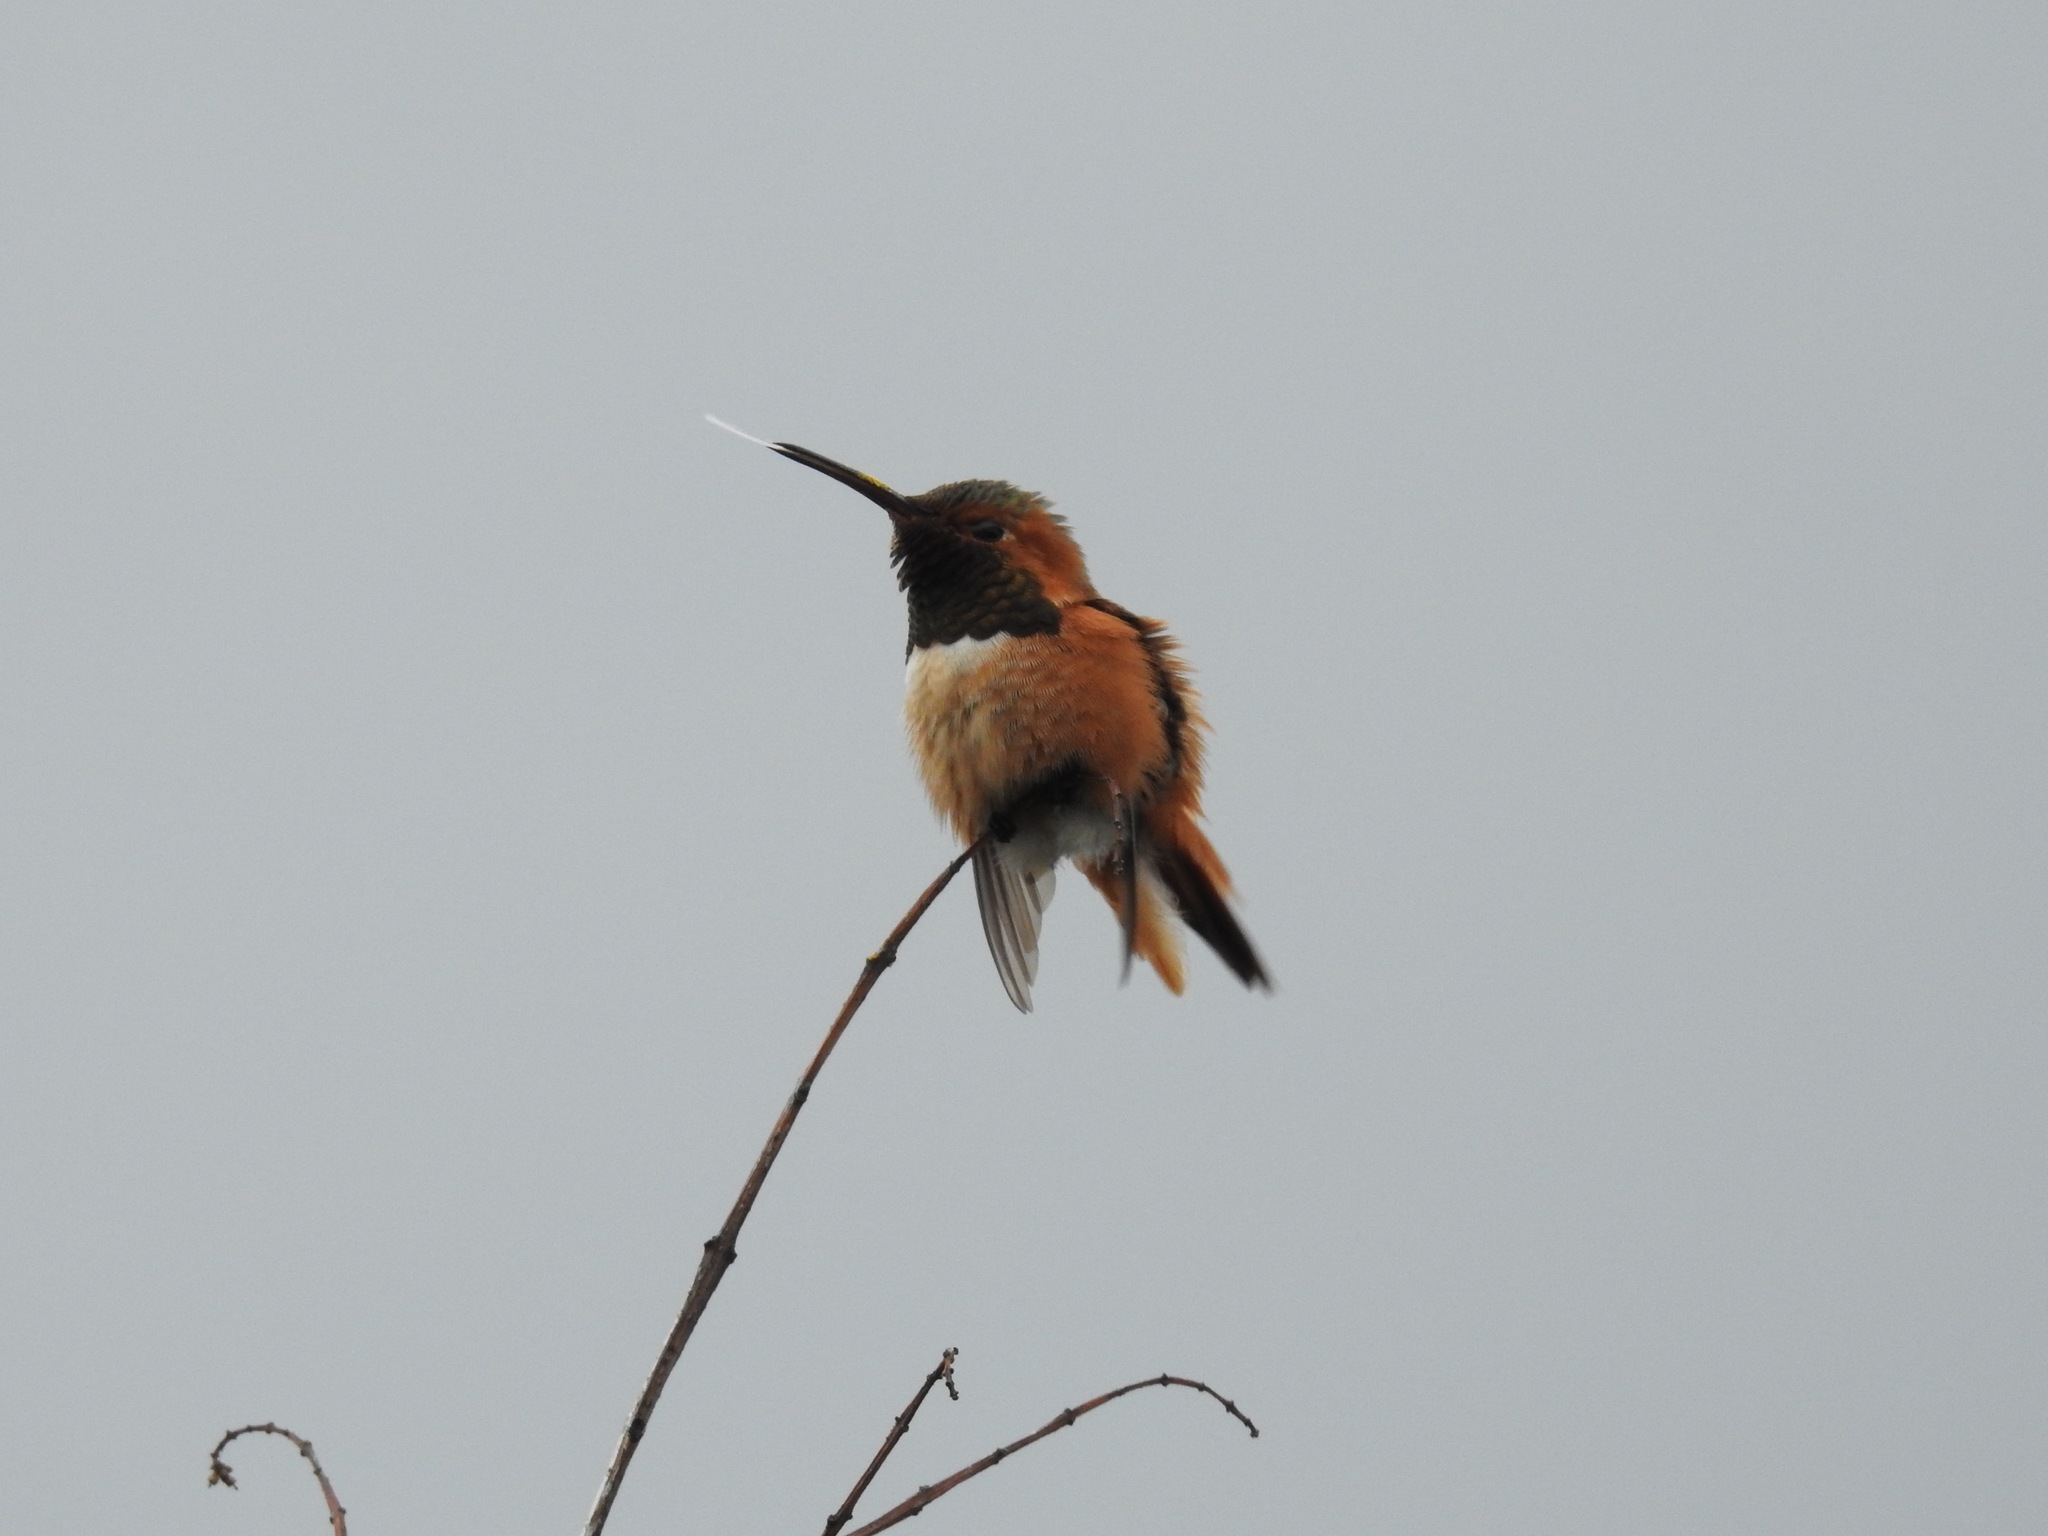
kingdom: Animalia
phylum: Chordata
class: Aves
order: Apodiformes
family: Trochilidae
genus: Selasphorus
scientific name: Selasphorus sasin
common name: Allen's hummingbird
